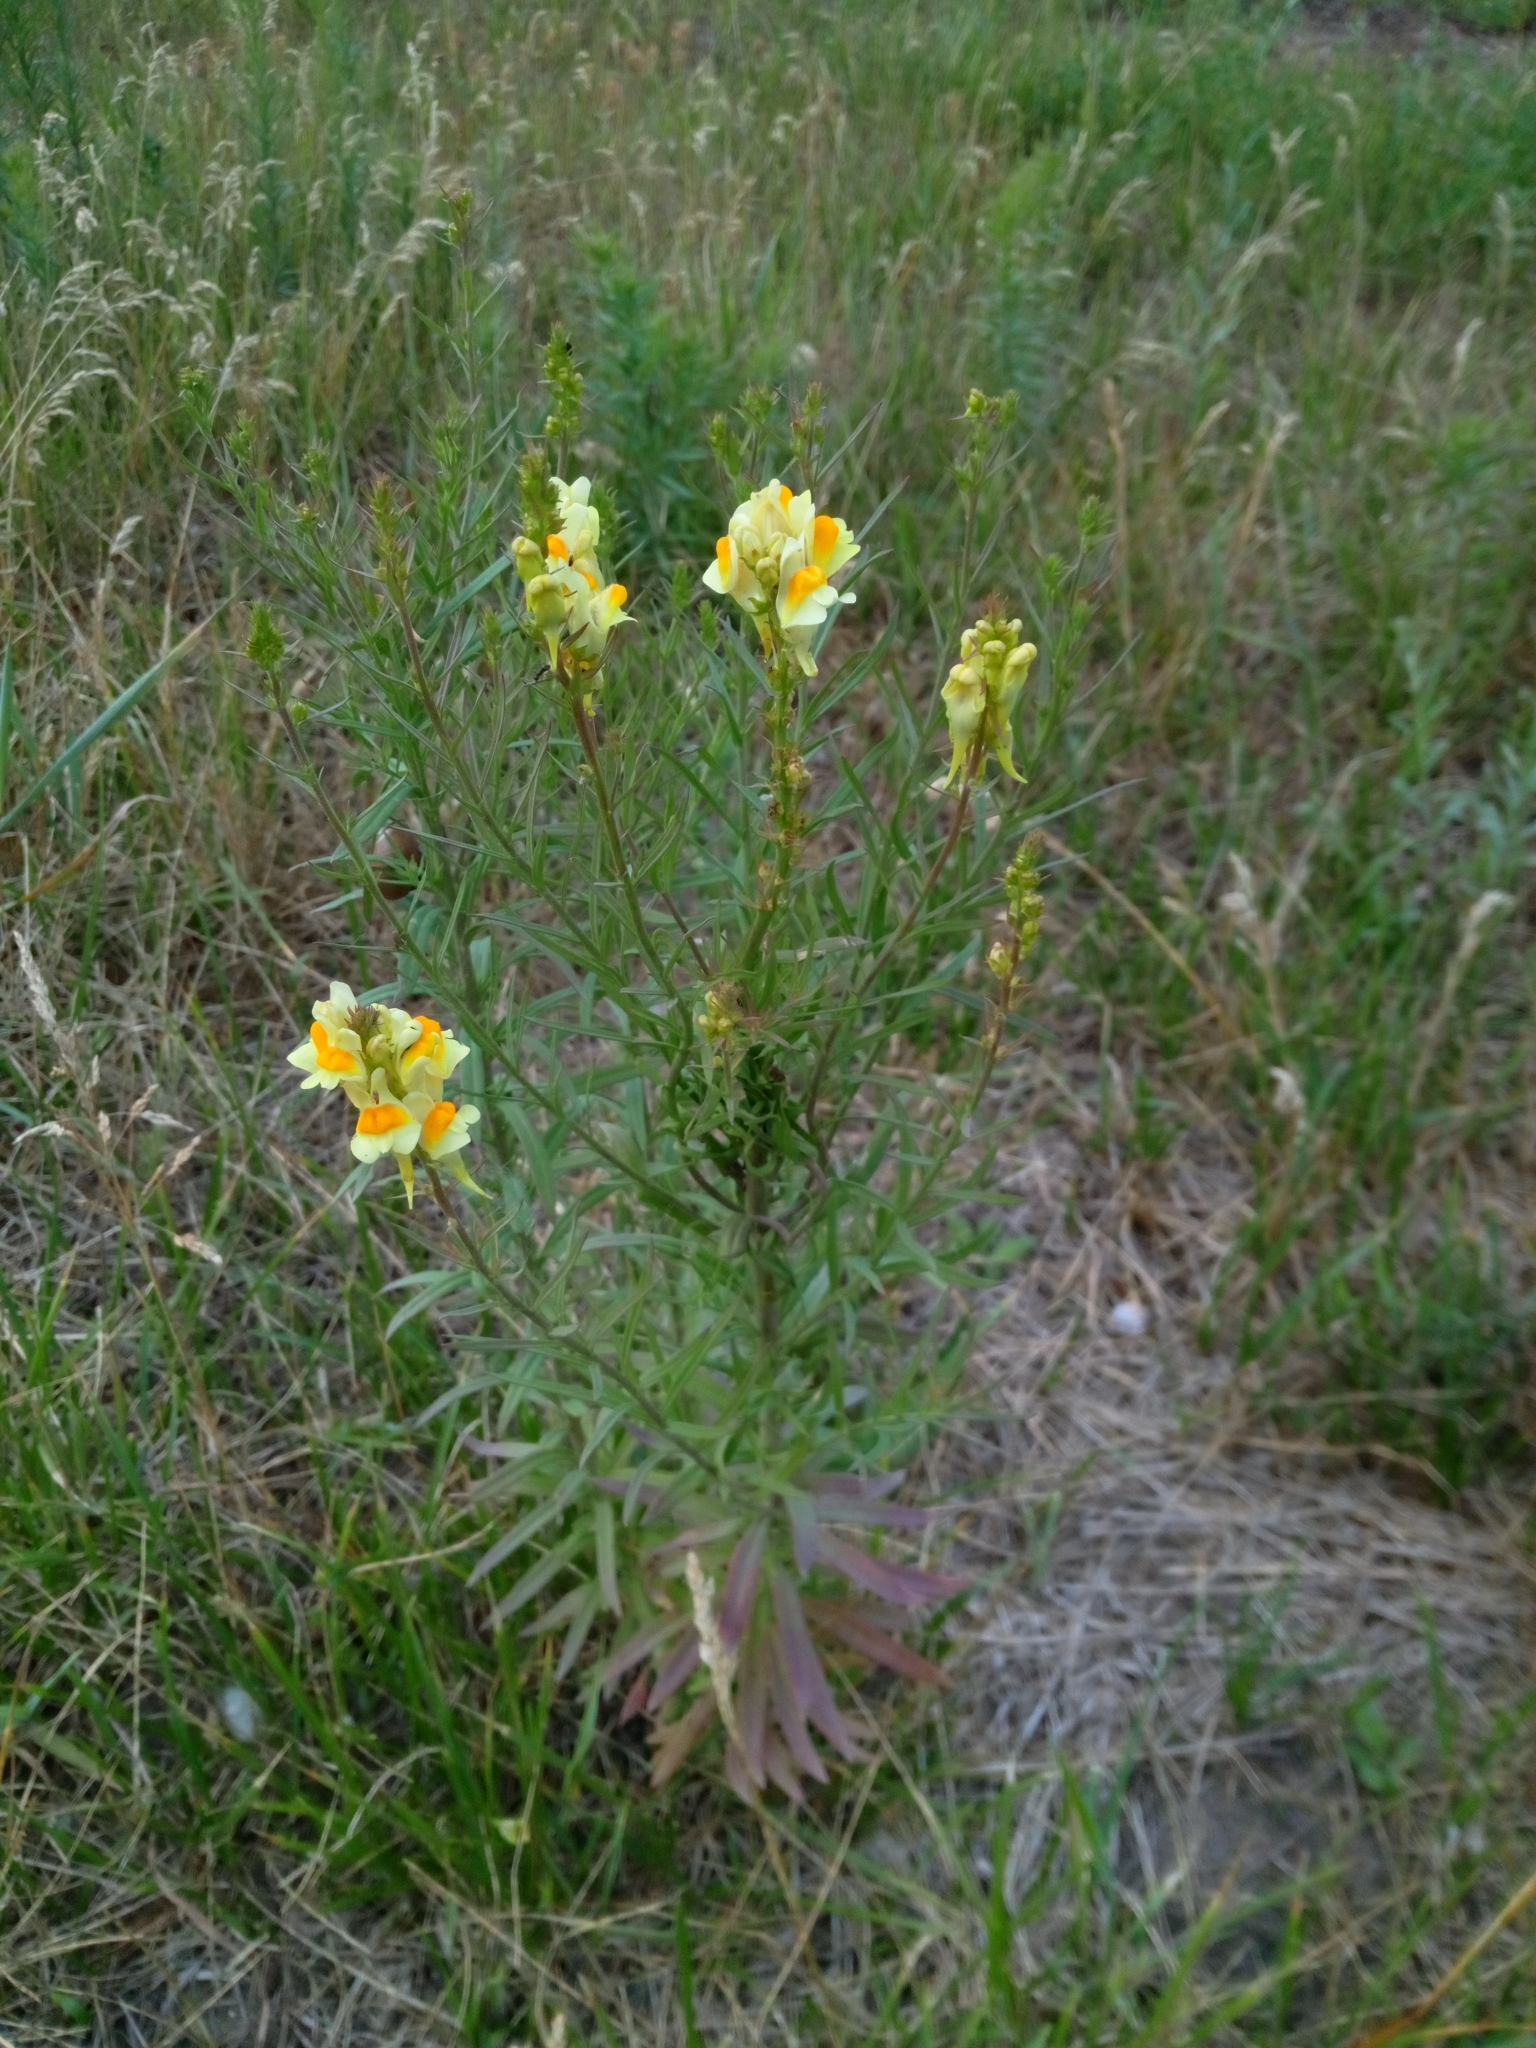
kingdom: Plantae
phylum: Tracheophyta
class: Magnoliopsida
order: Lamiales
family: Plantaginaceae
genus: Linaria
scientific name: Linaria vulgaris
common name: Butter and eggs
